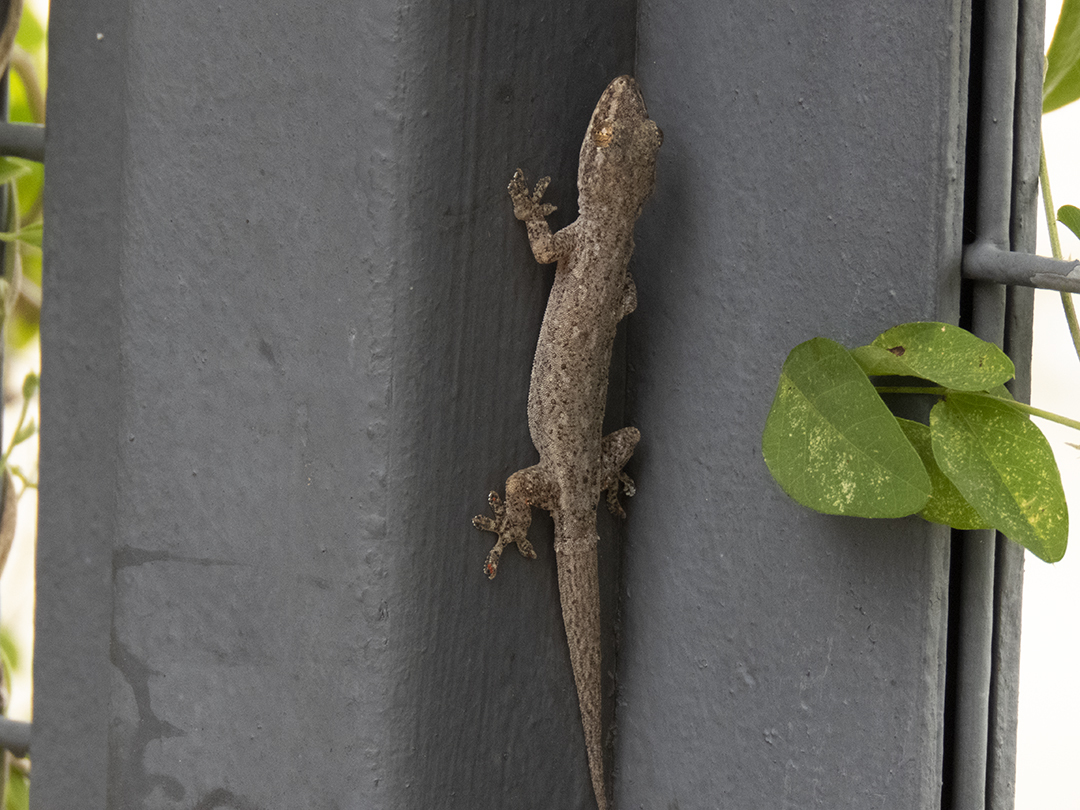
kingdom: Animalia
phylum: Chordata
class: Squamata
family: Gekkonidae
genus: Hemidactylus
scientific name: Hemidactylus frenatus
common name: Common house gecko
